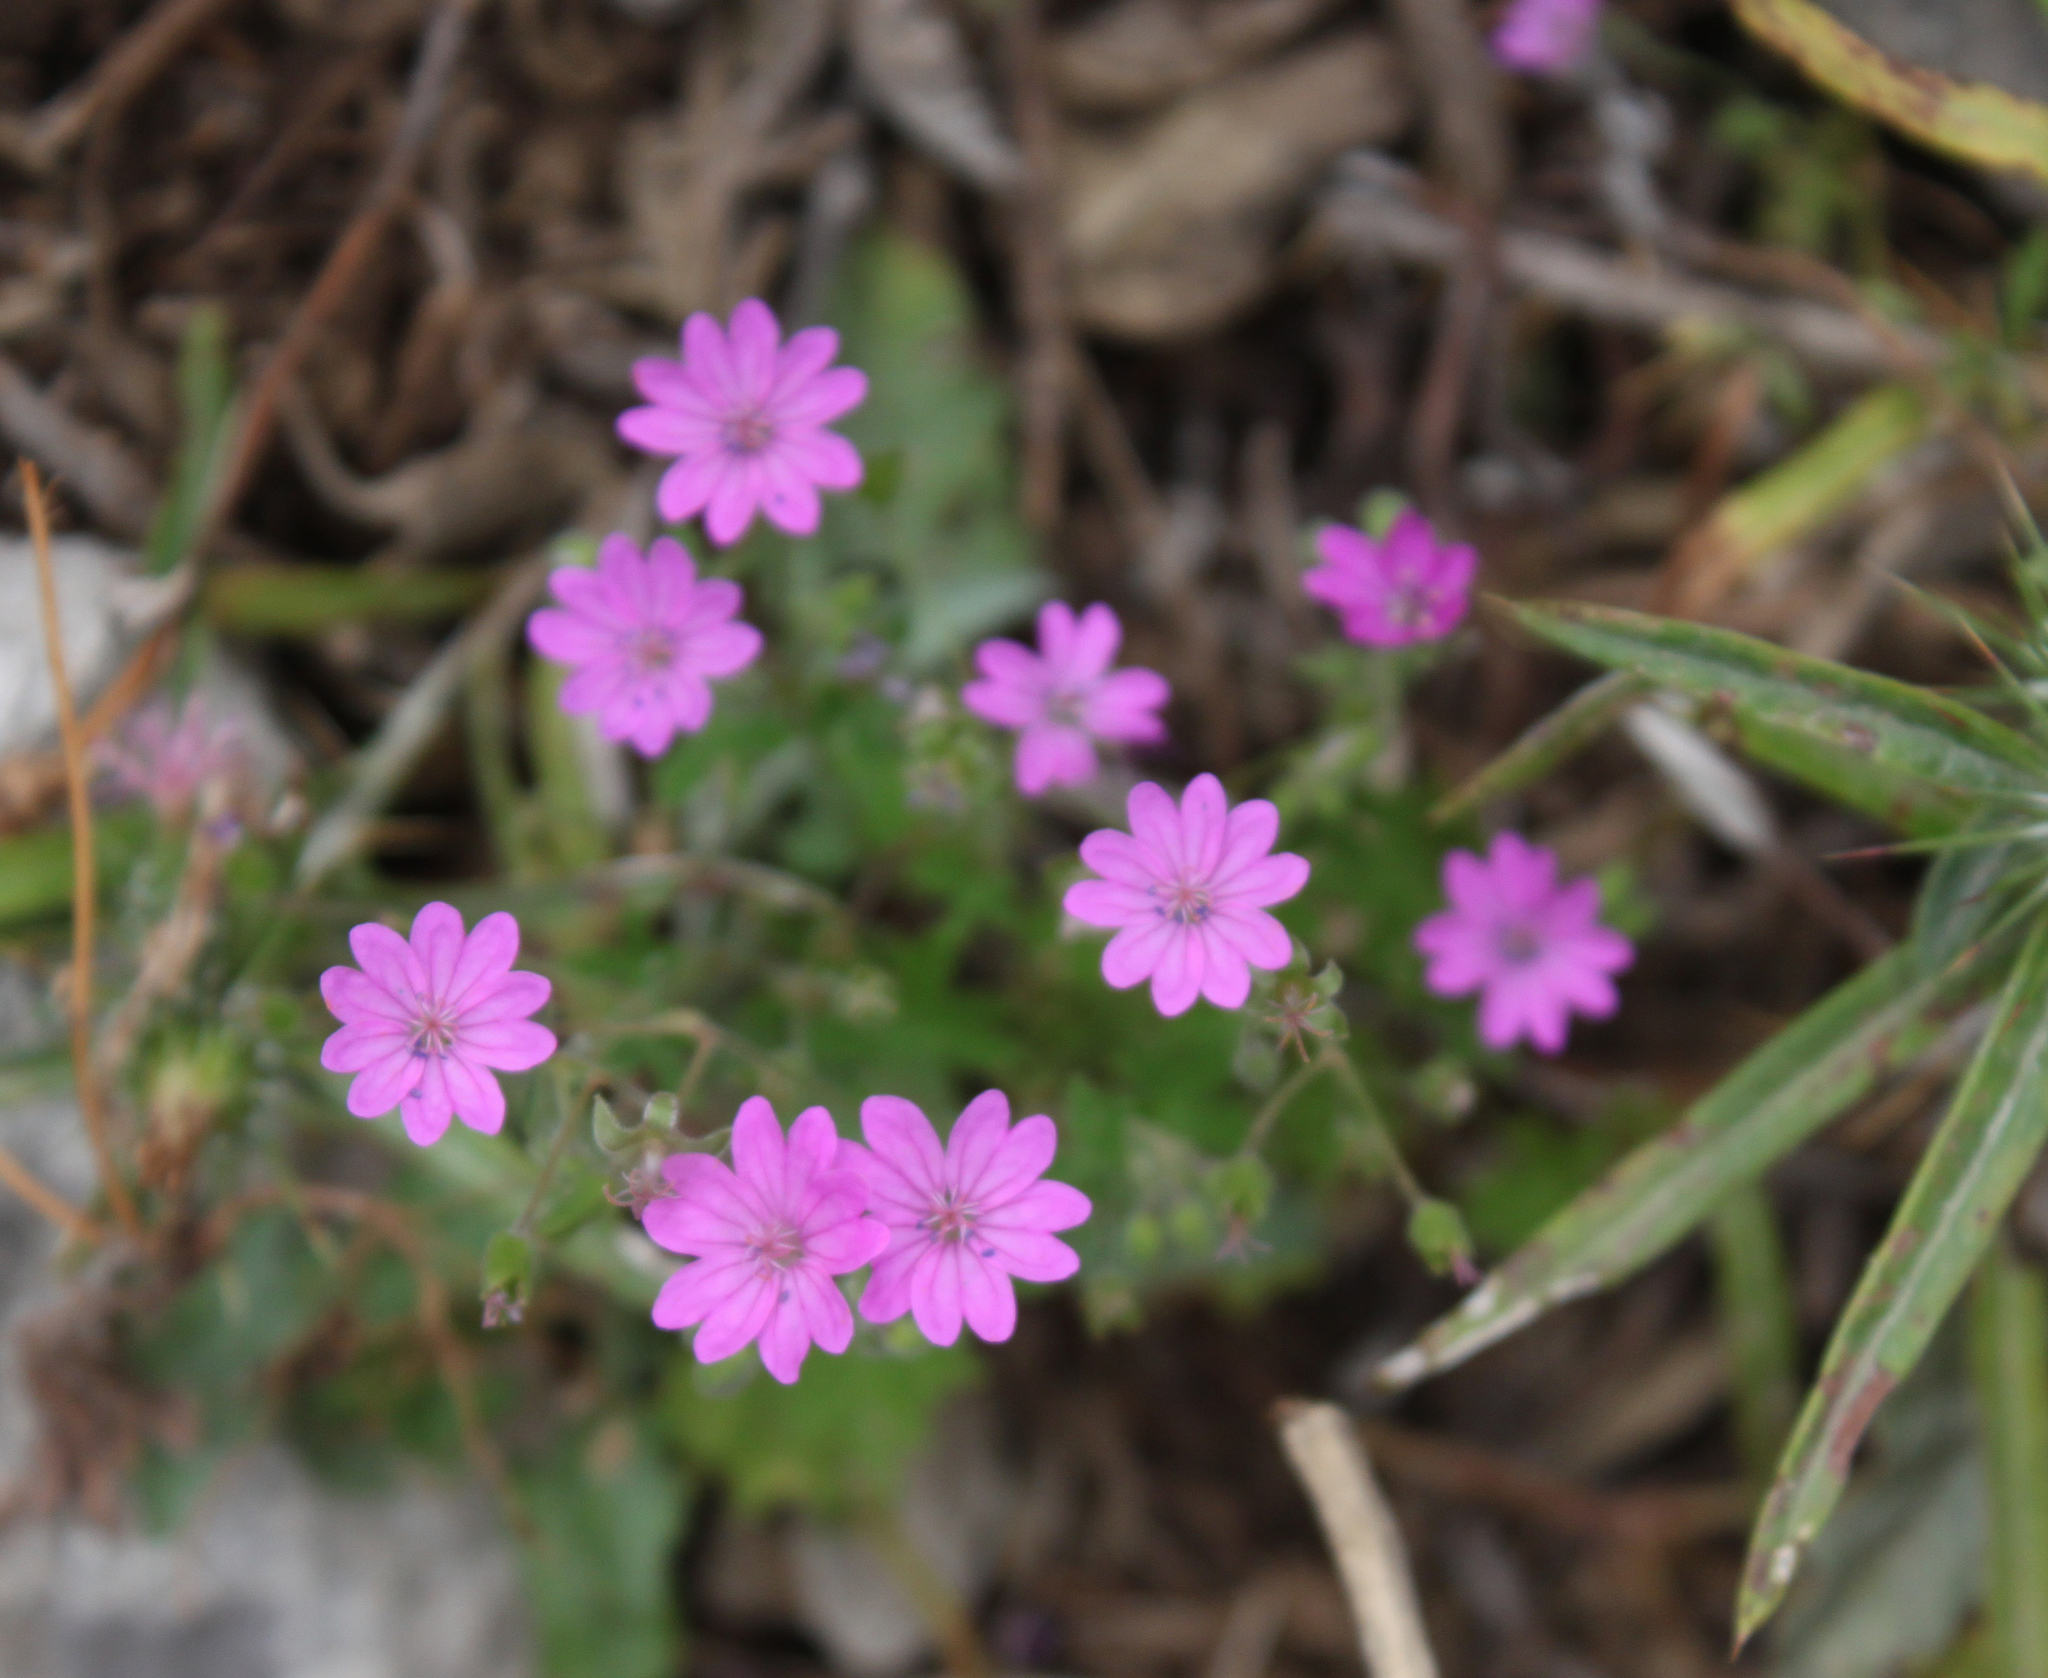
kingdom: Plantae
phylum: Tracheophyta
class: Magnoliopsida
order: Geraniales
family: Geraniaceae
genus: Geranium
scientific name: Geranium pyrenaicum
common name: Hedgerow crane's-bill
